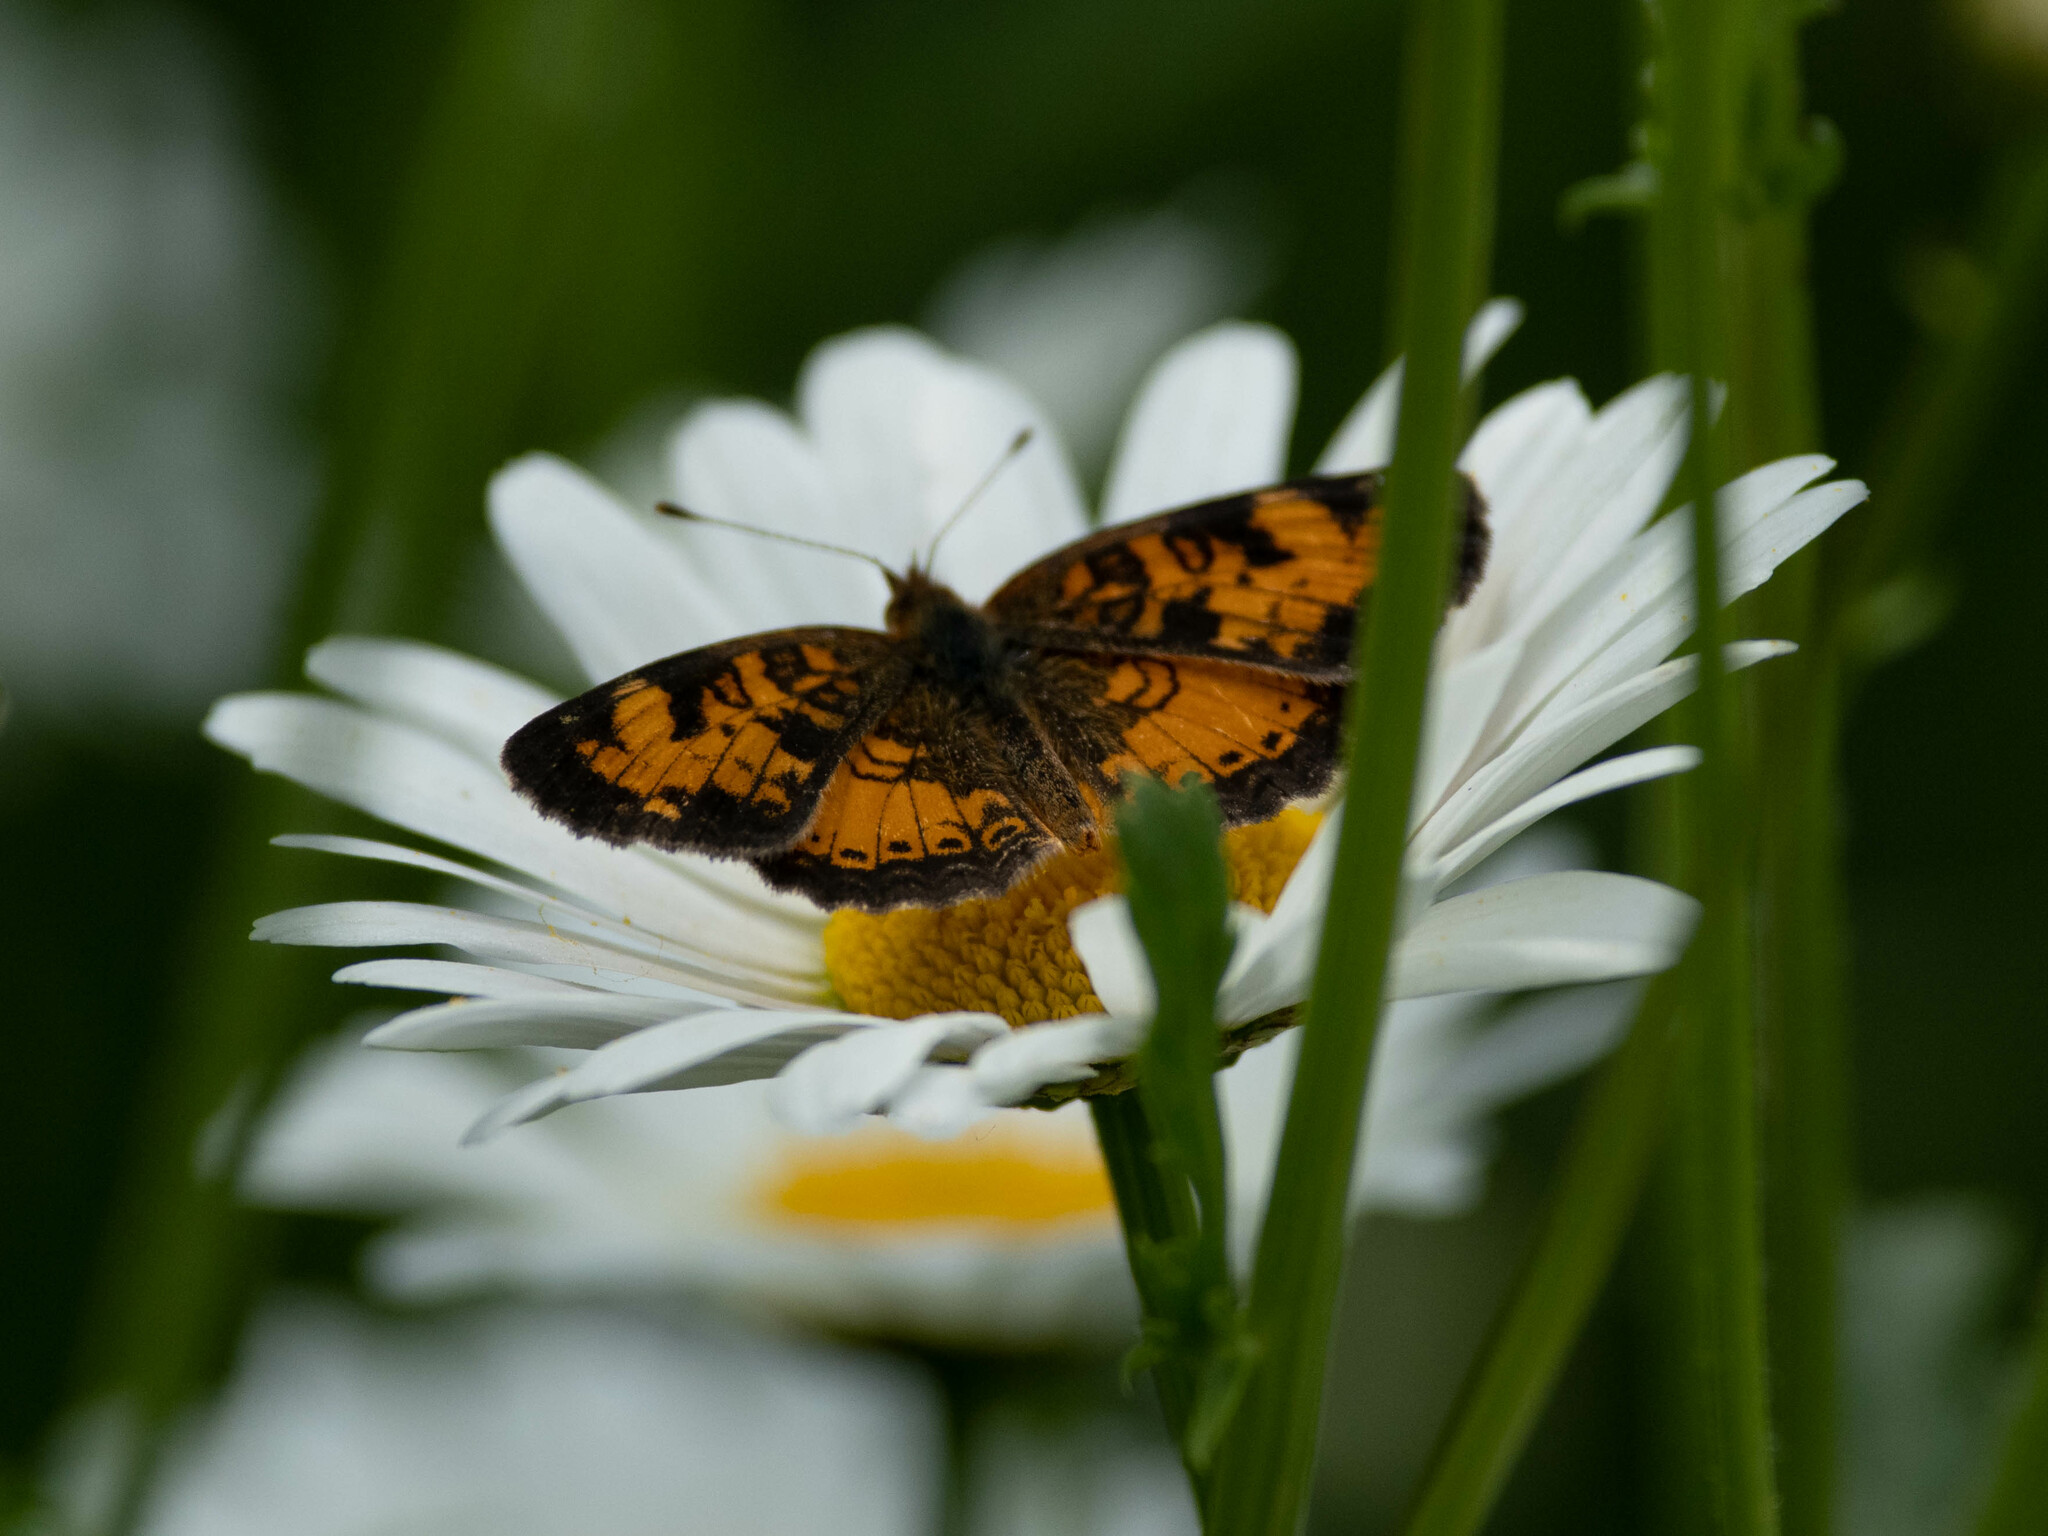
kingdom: Animalia
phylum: Arthropoda
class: Insecta
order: Lepidoptera
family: Nymphalidae
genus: Phyciodes
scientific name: Phyciodes tharos
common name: Pearl crescent
